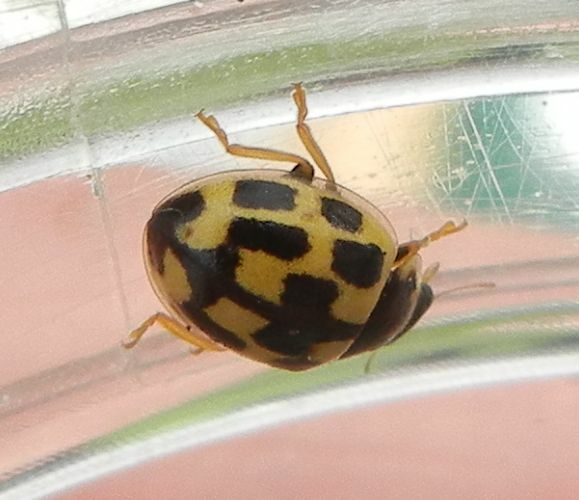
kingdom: Animalia
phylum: Arthropoda
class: Insecta
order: Coleoptera
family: Coccinellidae
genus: Propylaea
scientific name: Propylaea quatuordecimpunctata
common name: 14-spotted ladybird beetle
